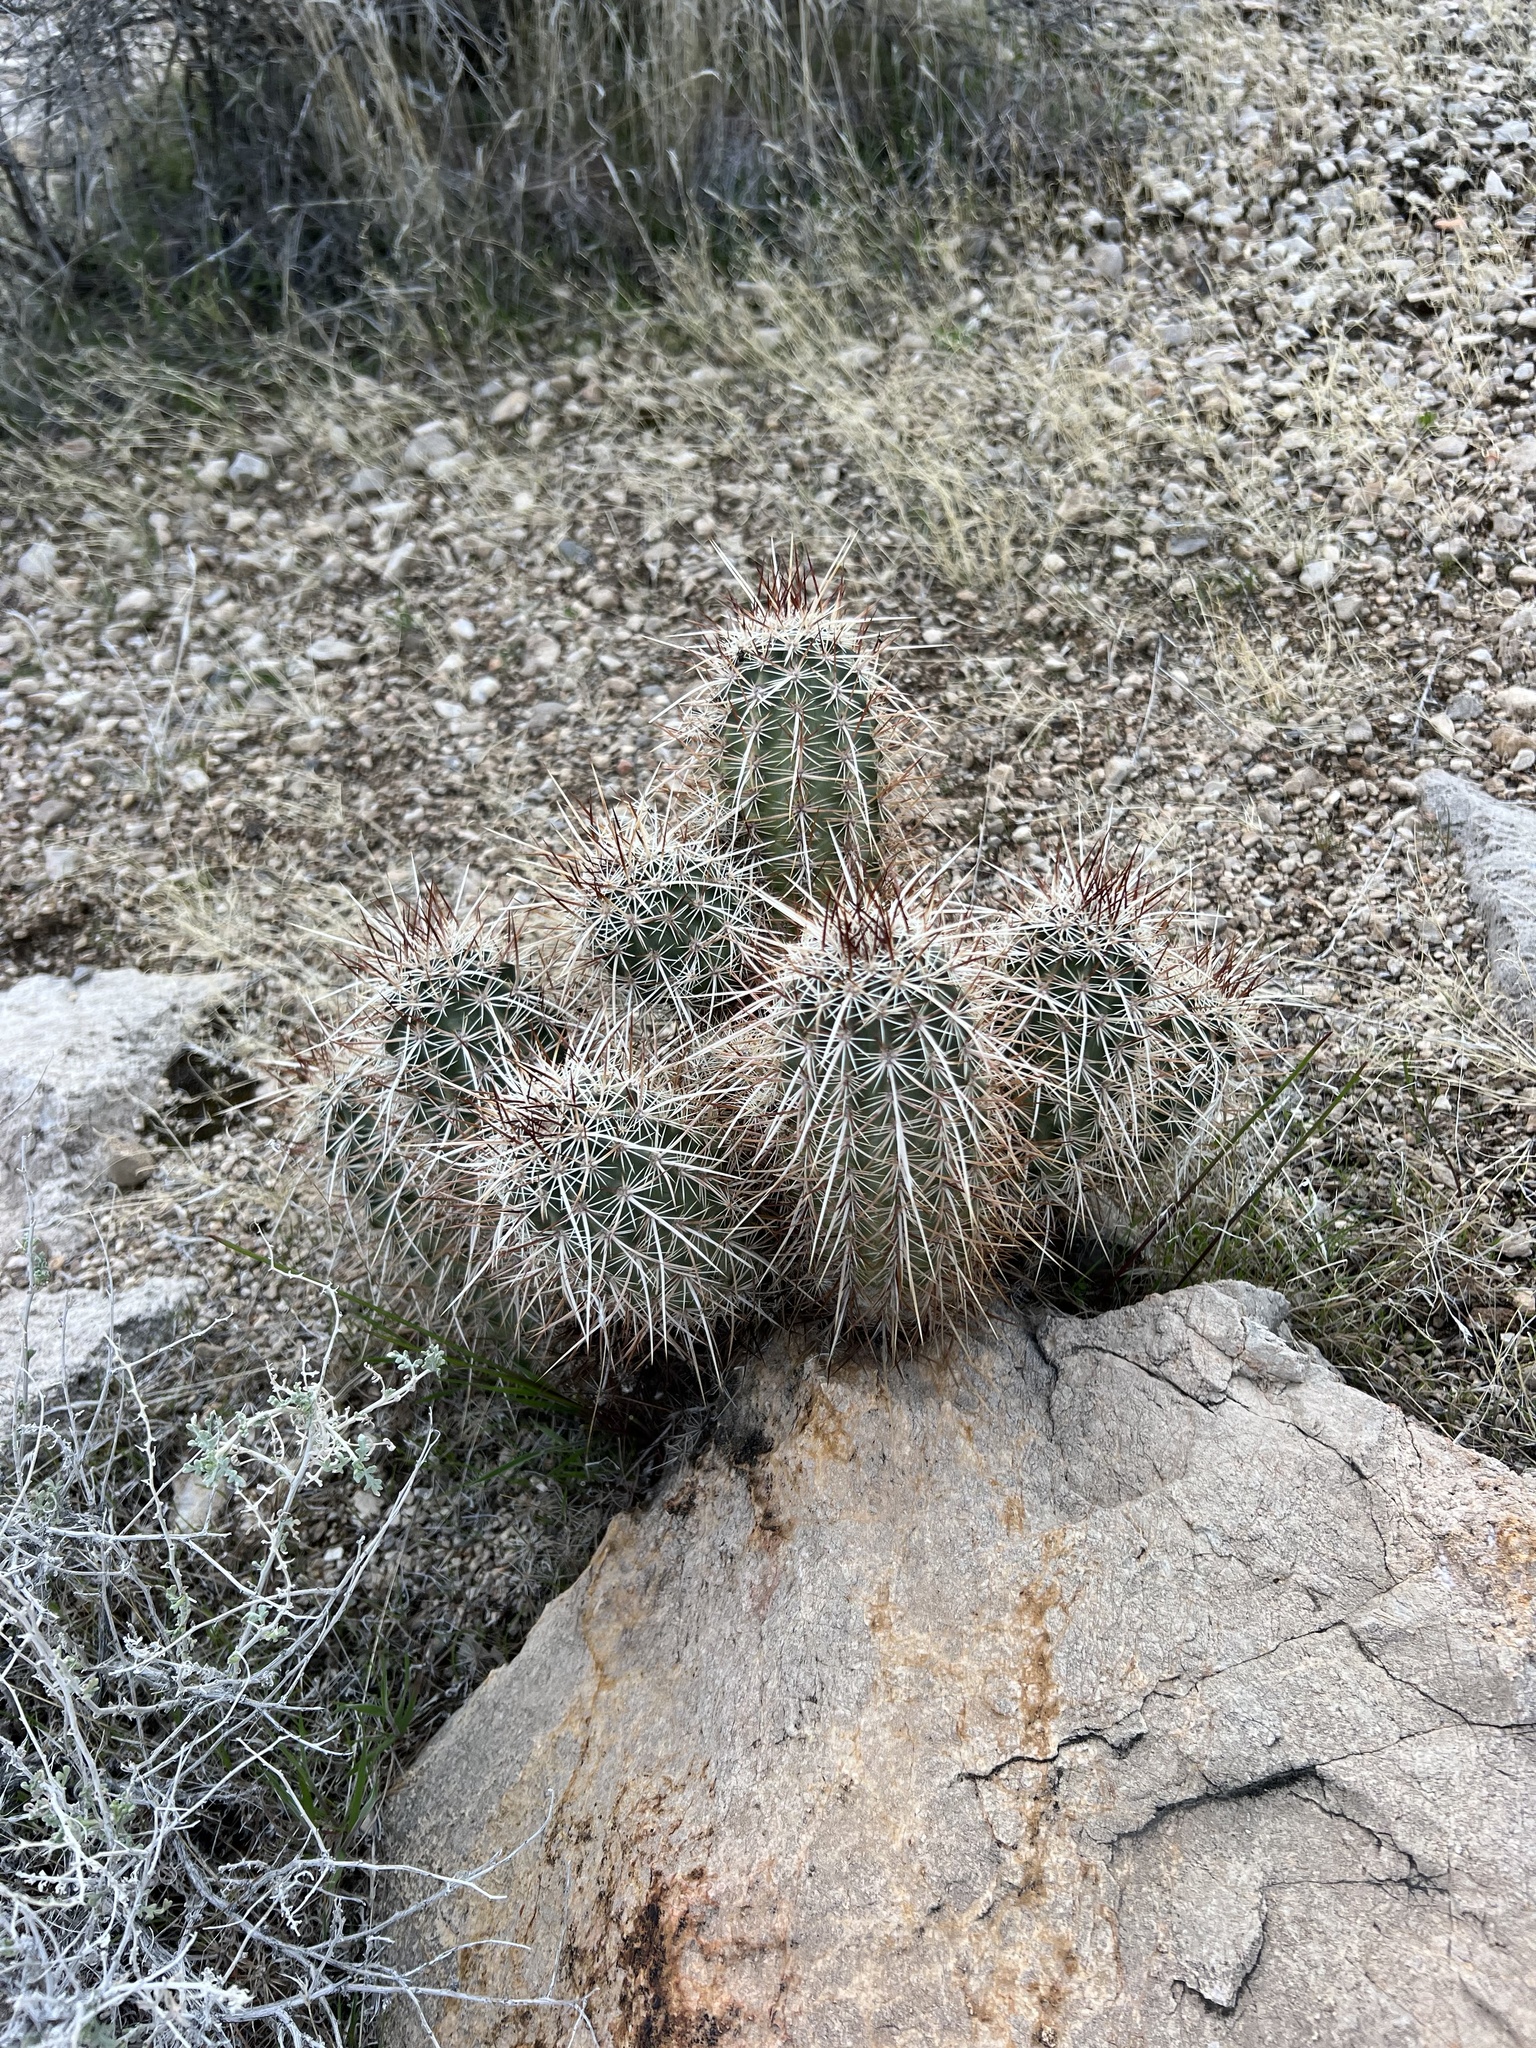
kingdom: Plantae
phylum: Tracheophyta
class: Magnoliopsida
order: Caryophyllales
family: Cactaceae
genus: Echinocereus
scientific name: Echinocereus engelmannii
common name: Engelmann's hedgehog cactus
